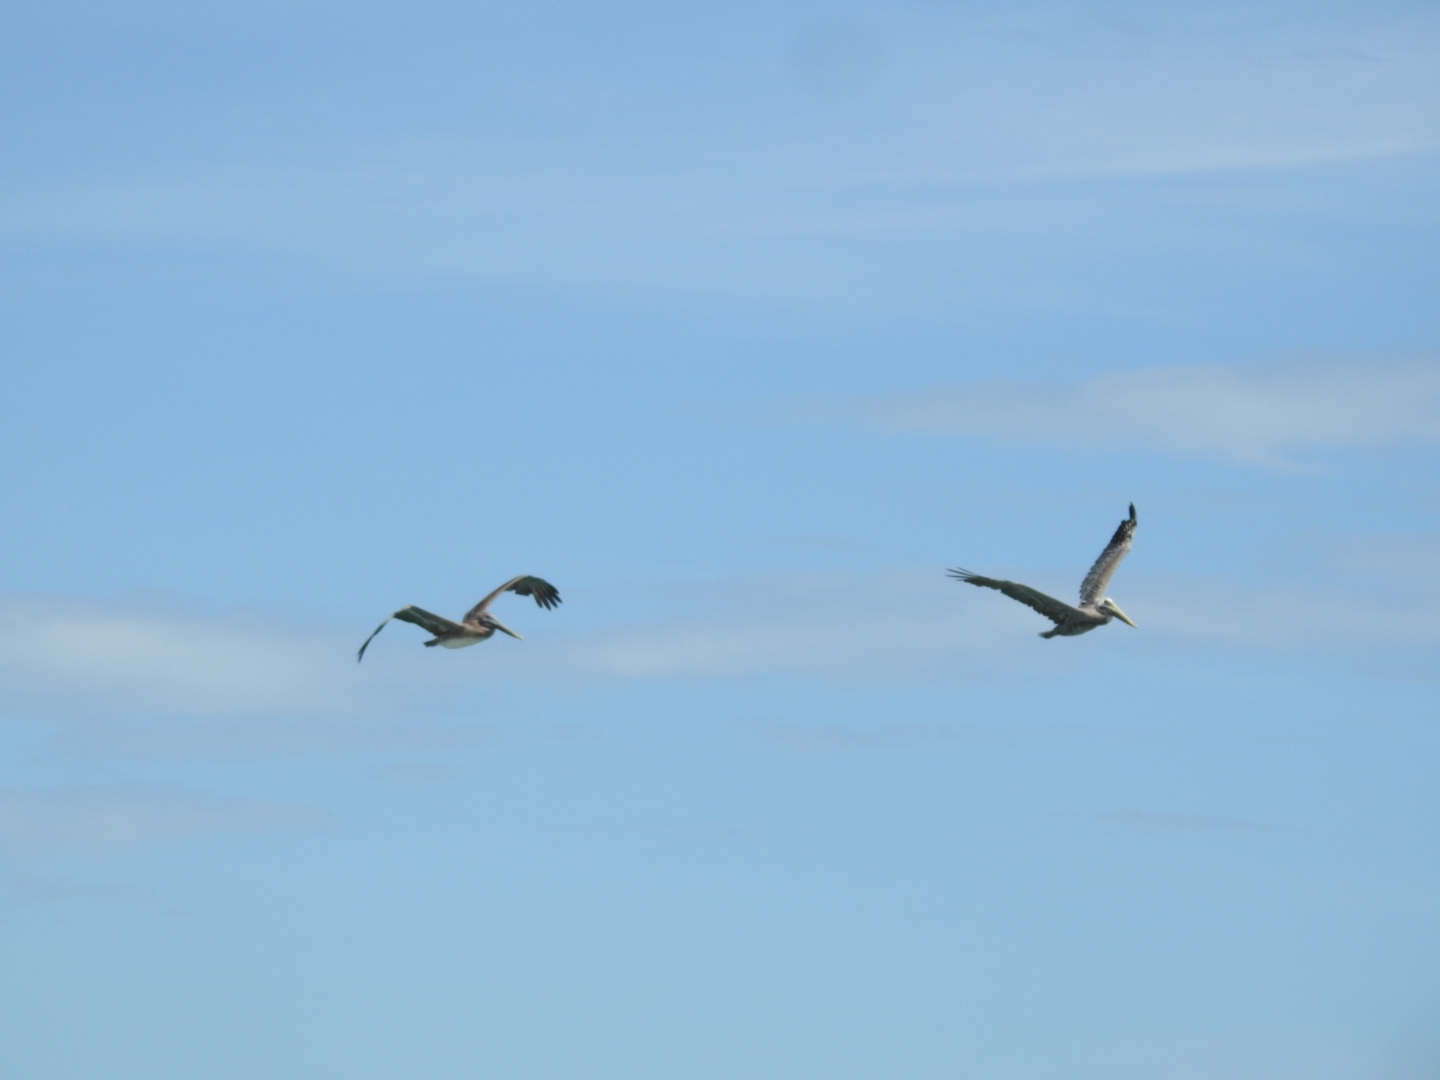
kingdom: Animalia
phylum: Chordata
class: Aves
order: Pelecaniformes
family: Pelecanidae
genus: Pelecanus
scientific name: Pelecanus occidentalis
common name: Brown pelican
